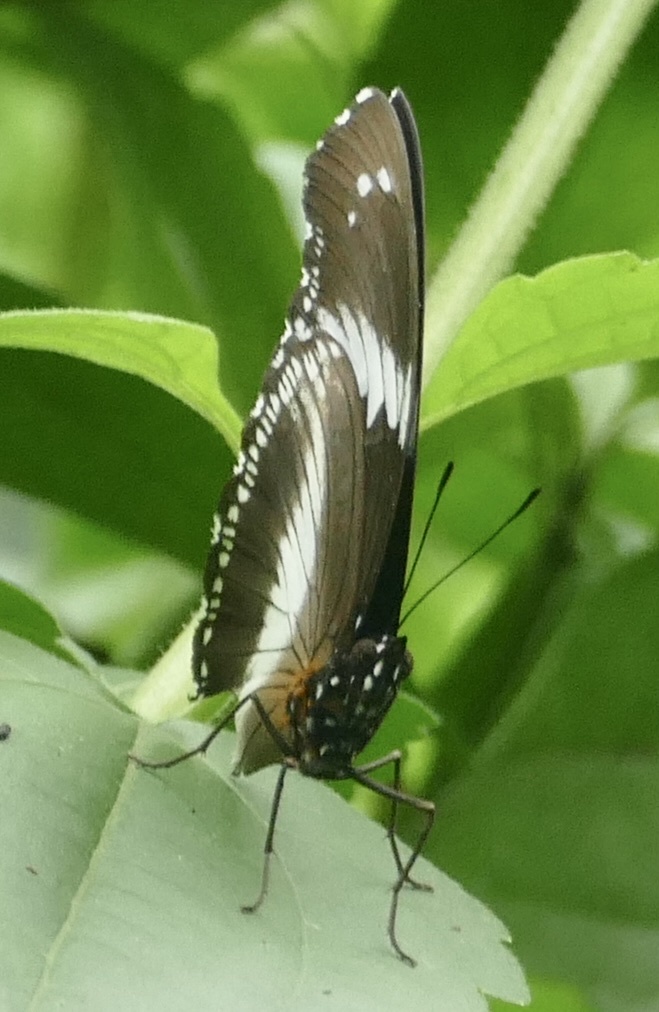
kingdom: Animalia
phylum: Arthropoda
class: Insecta
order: Lepidoptera
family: Nymphalidae
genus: Hypolimnas
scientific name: Hypolimnas salmacis
